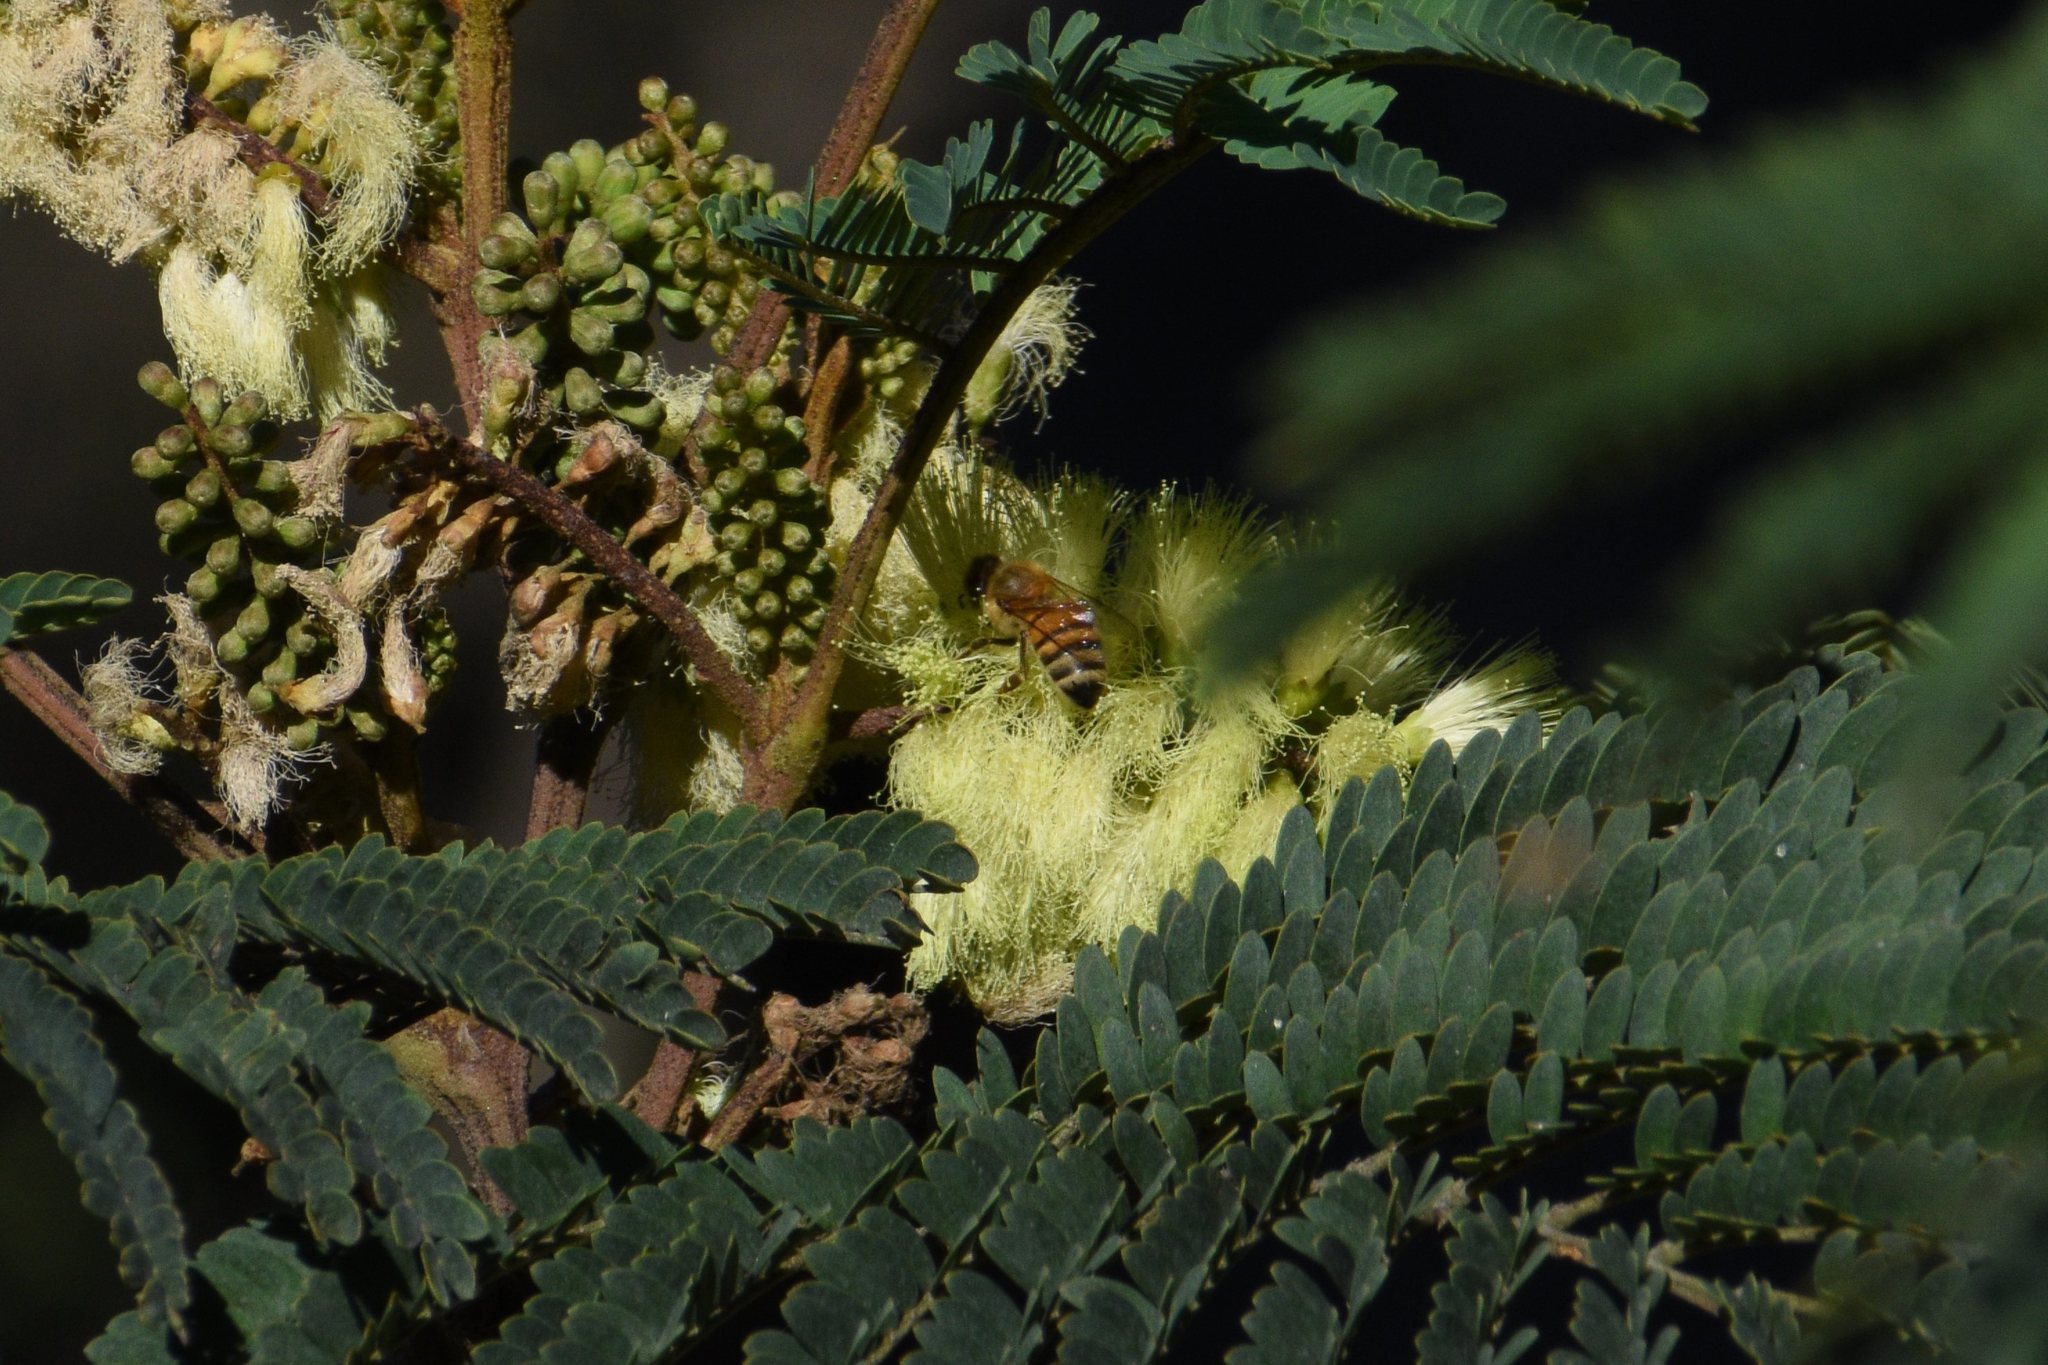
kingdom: Animalia
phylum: Arthropoda
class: Insecta
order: Hymenoptera
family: Apidae
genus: Apis
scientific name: Apis mellifera
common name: Honey bee
